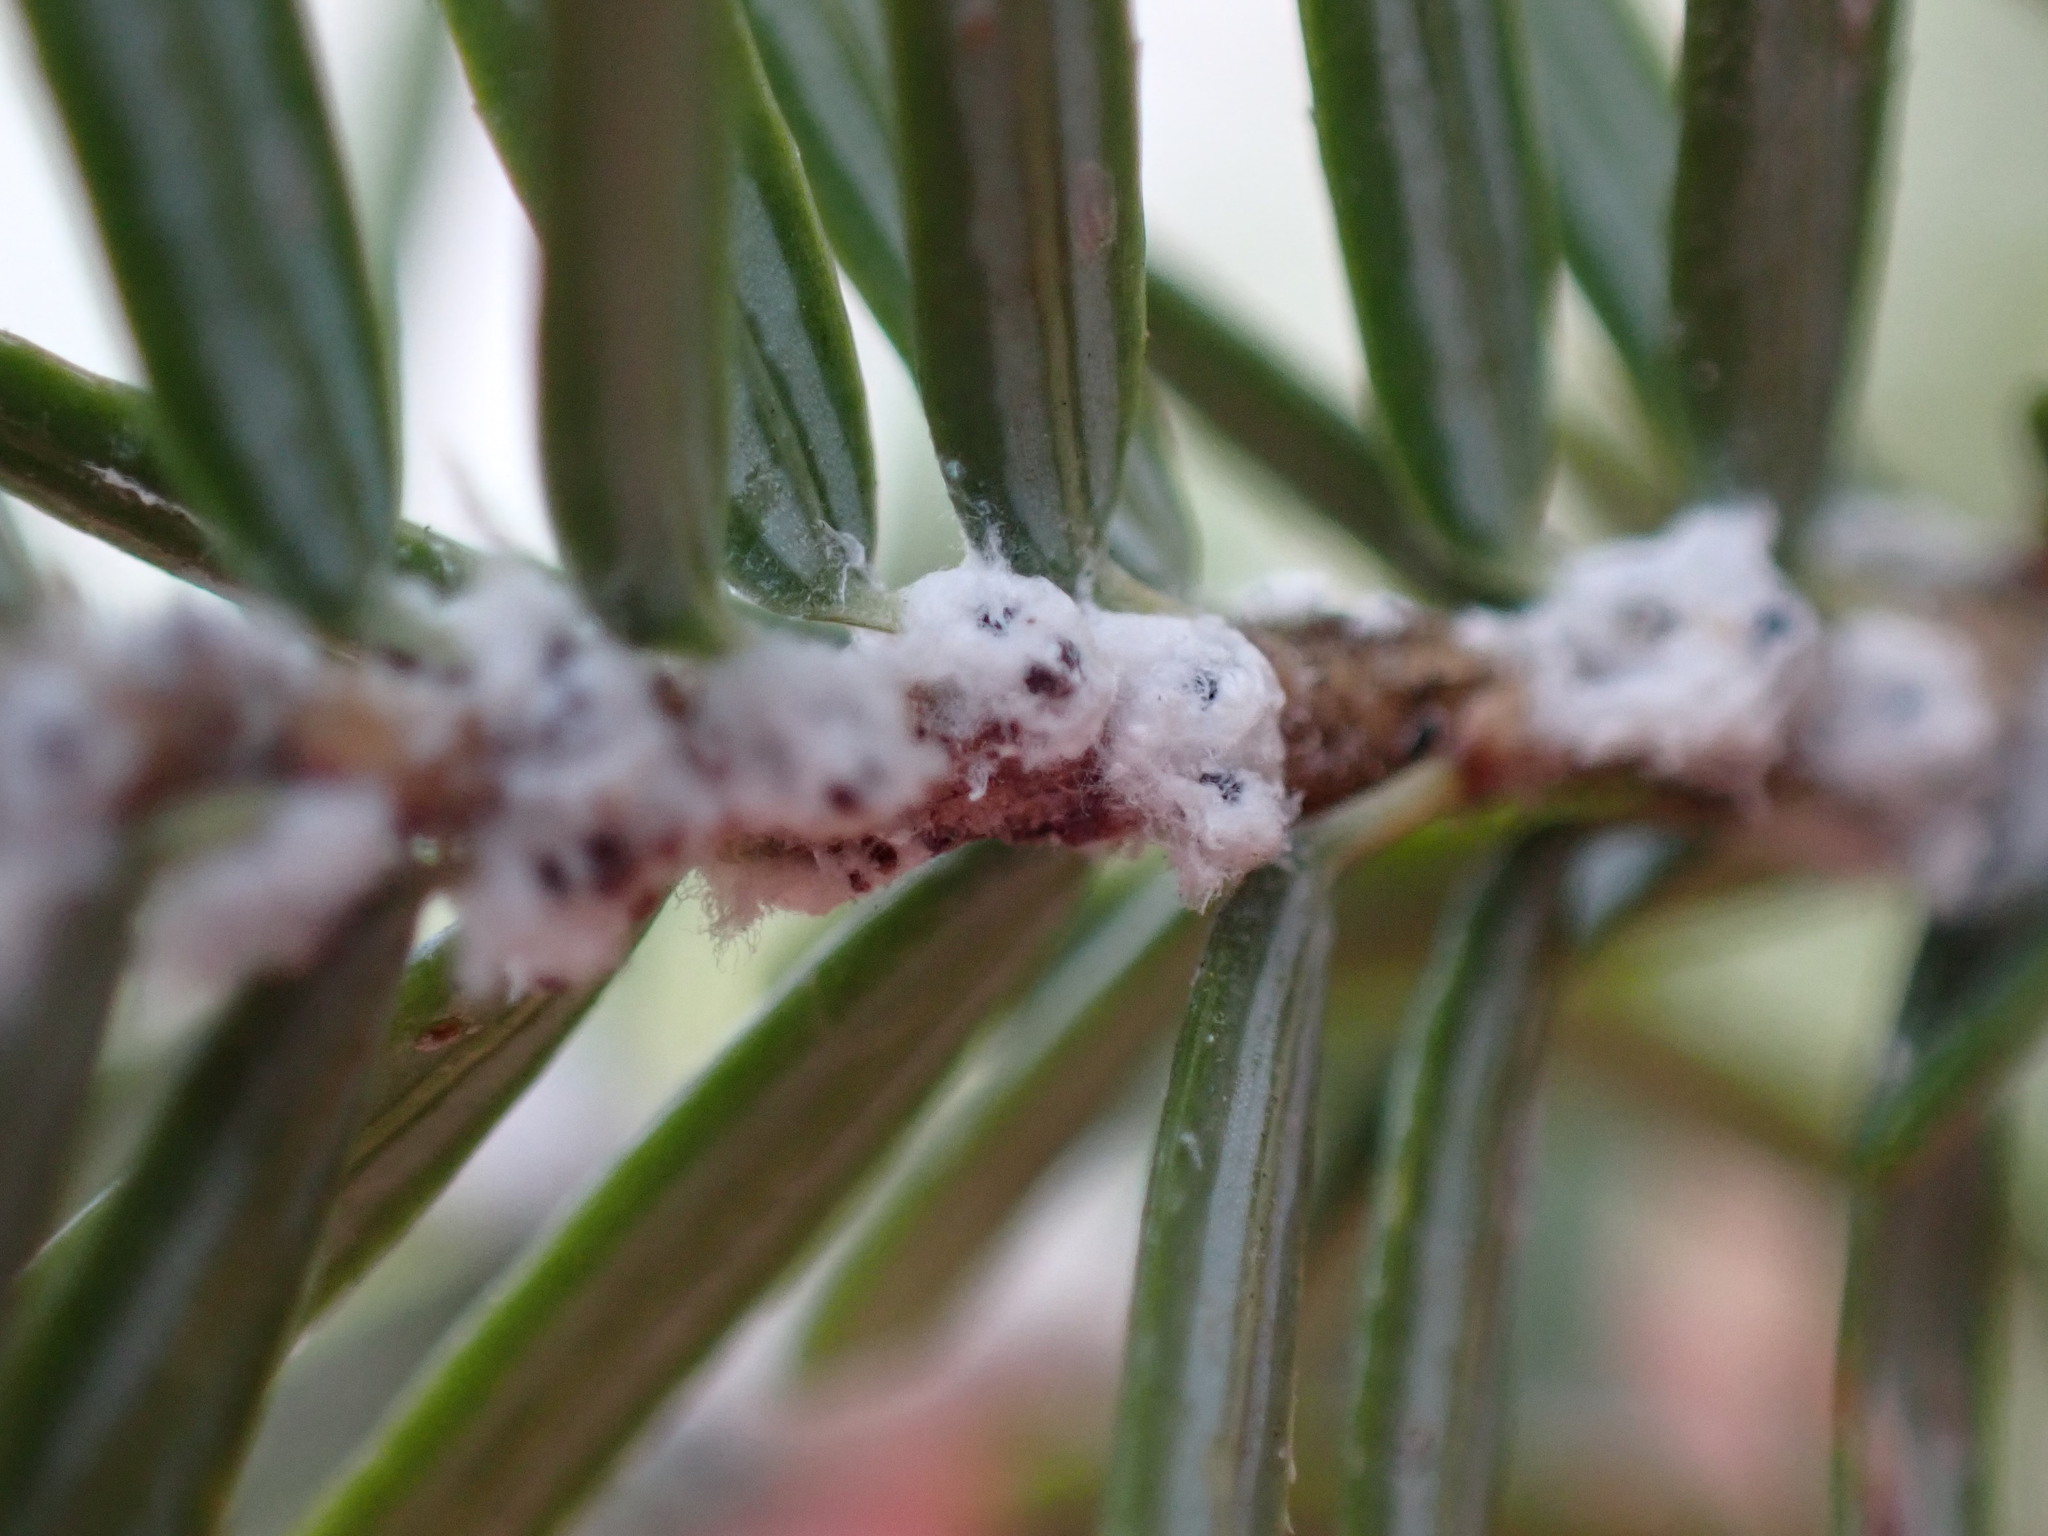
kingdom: Animalia
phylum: Arthropoda
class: Insecta
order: Hemiptera
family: Adelgidae
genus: Adelges
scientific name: Adelges tsugae
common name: Hemlock woolly adelgid
